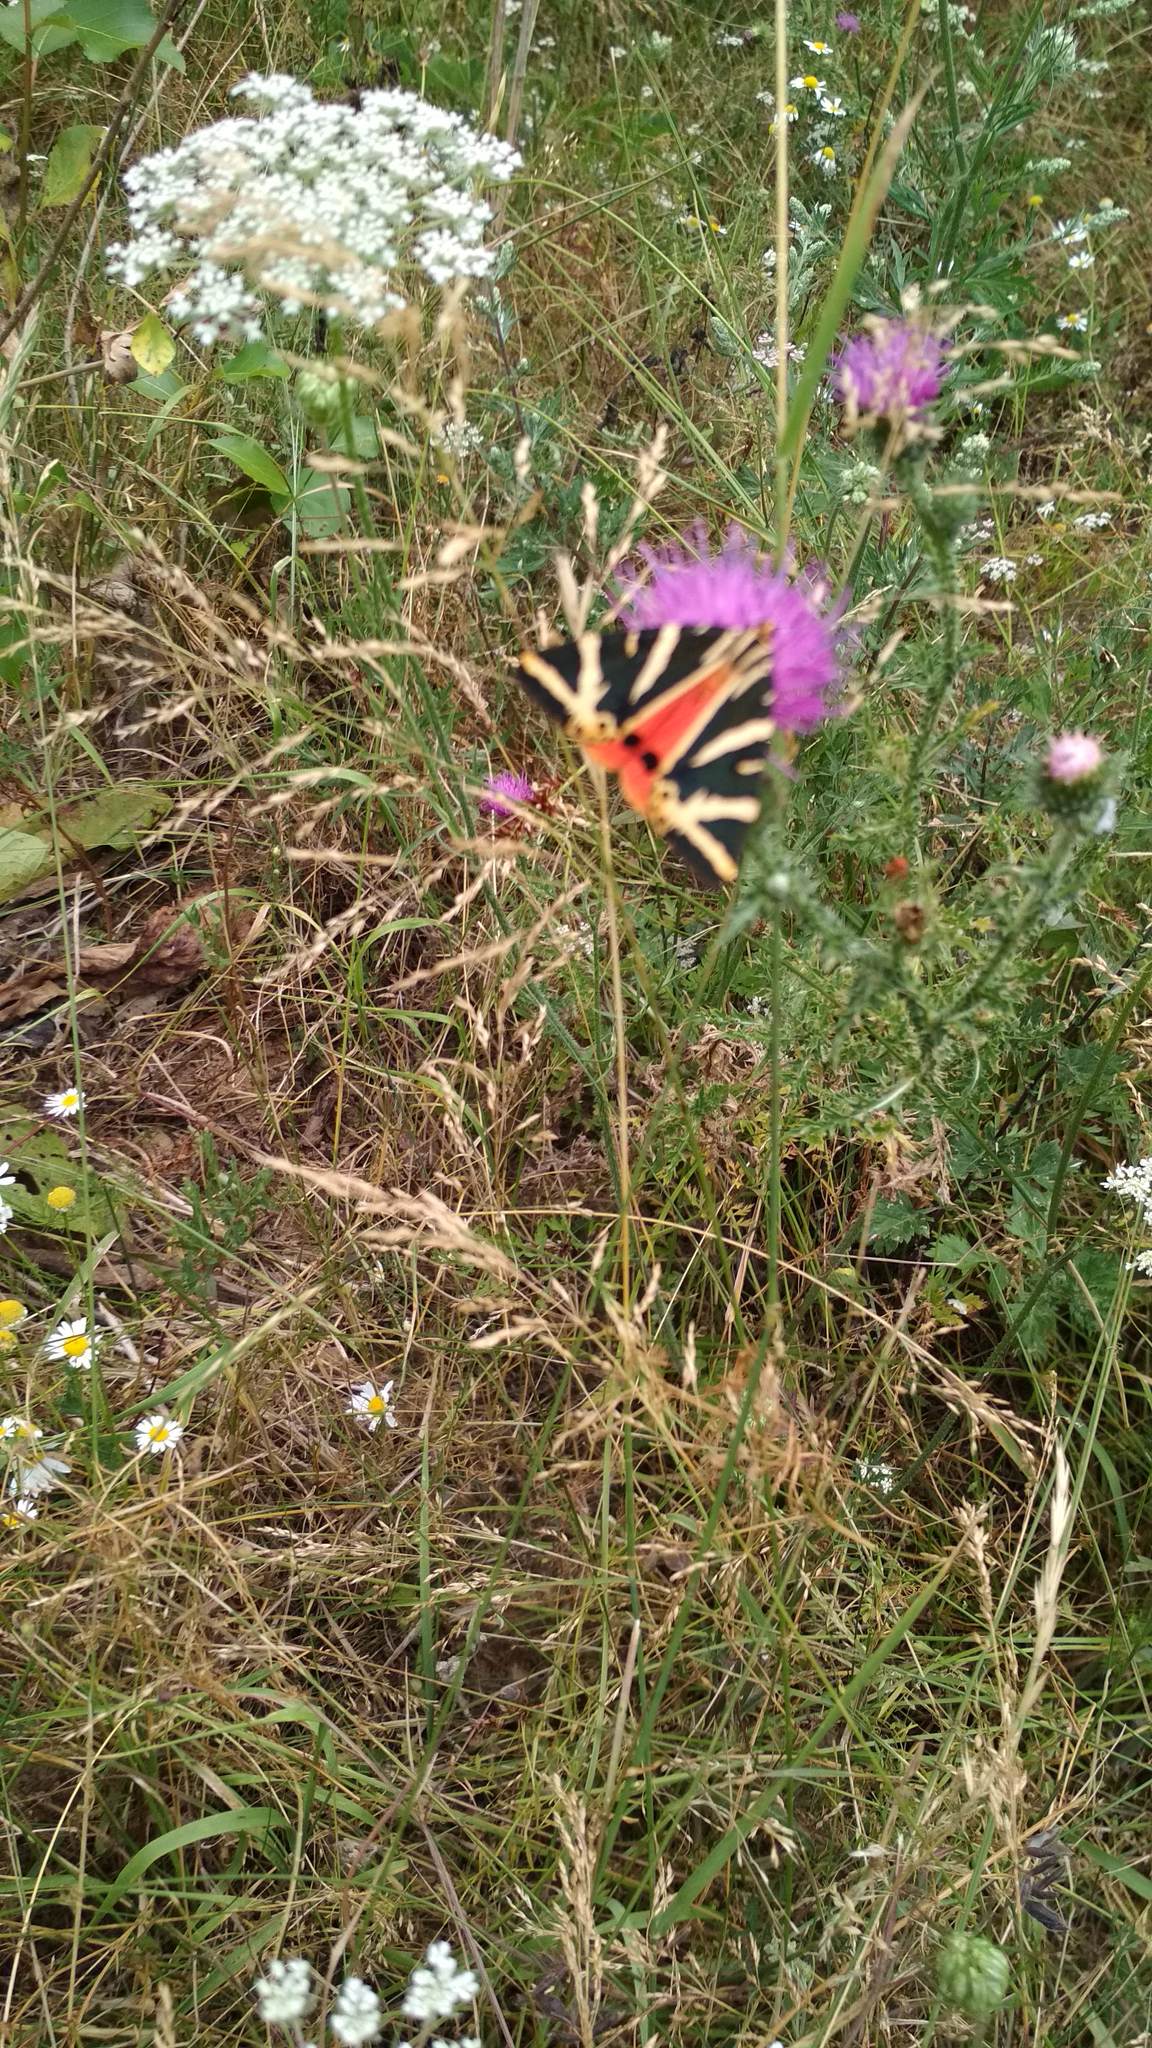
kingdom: Animalia
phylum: Arthropoda
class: Insecta
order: Lepidoptera
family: Erebidae
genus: Euplagia
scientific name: Euplagia quadripunctaria
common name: Jersey tiger
